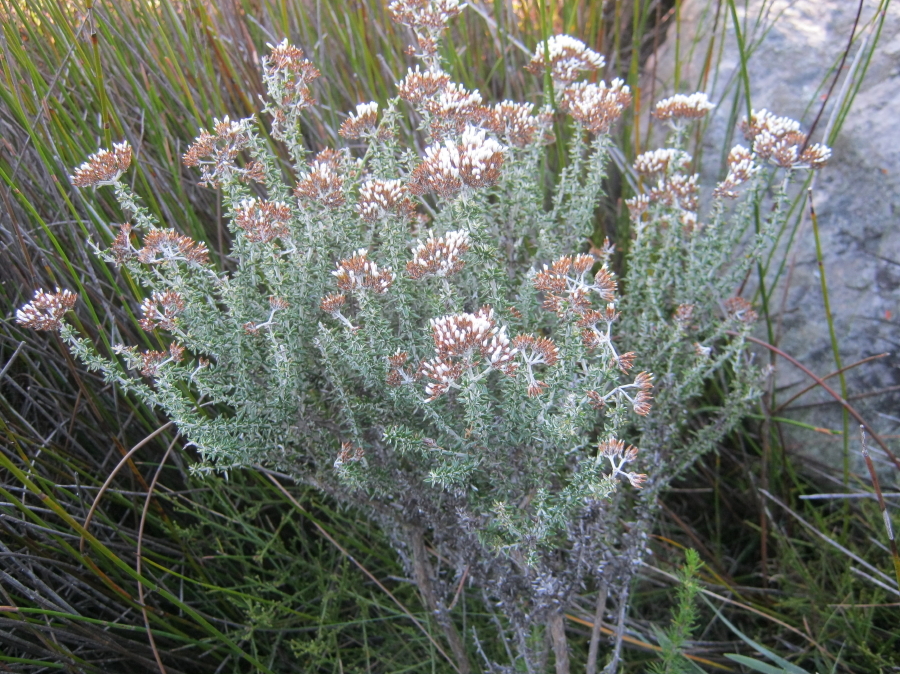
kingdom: Plantae
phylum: Tracheophyta
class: Magnoliopsida
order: Asterales
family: Asteraceae
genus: Metalasia
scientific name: Metalasia densa
